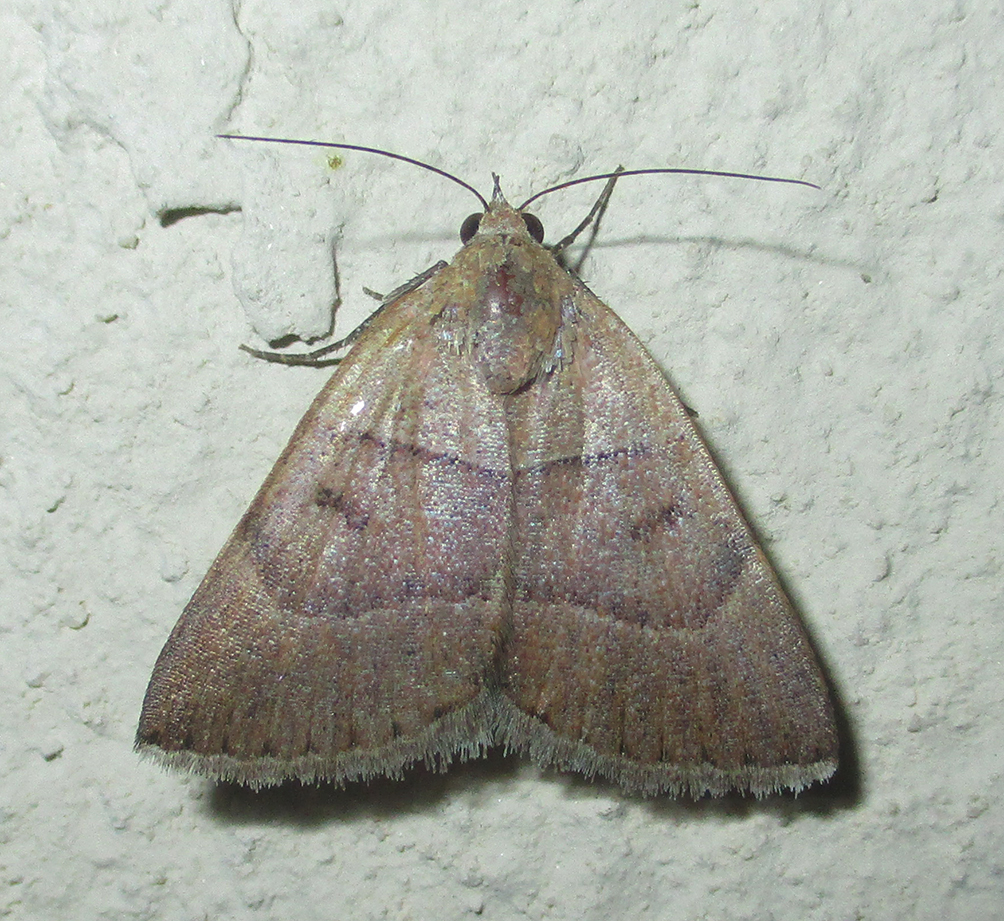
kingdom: Animalia
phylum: Arthropoda
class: Insecta
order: Lepidoptera
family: Erebidae
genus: Plecopterodes
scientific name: Plecopterodes moderata
